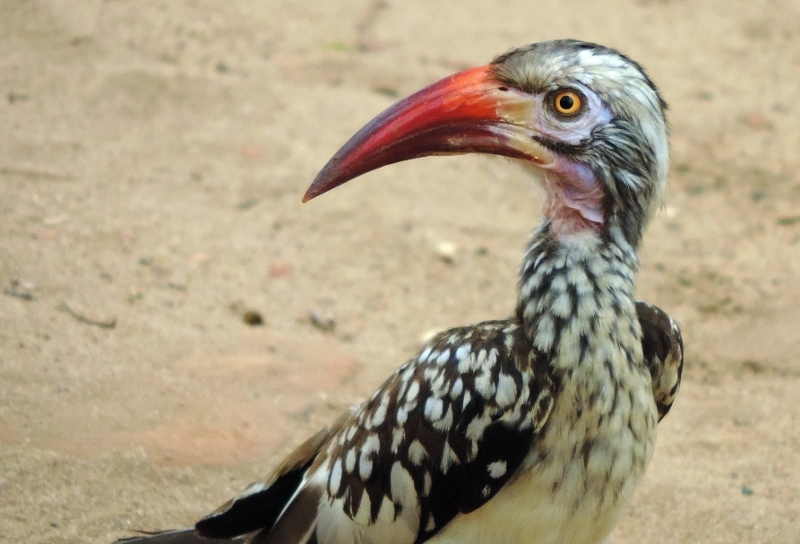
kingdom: Animalia
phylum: Chordata
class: Aves
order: Bucerotiformes
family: Bucerotidae
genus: Tockus
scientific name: Tockus rufirostris
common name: Southern red-billed hornbill
